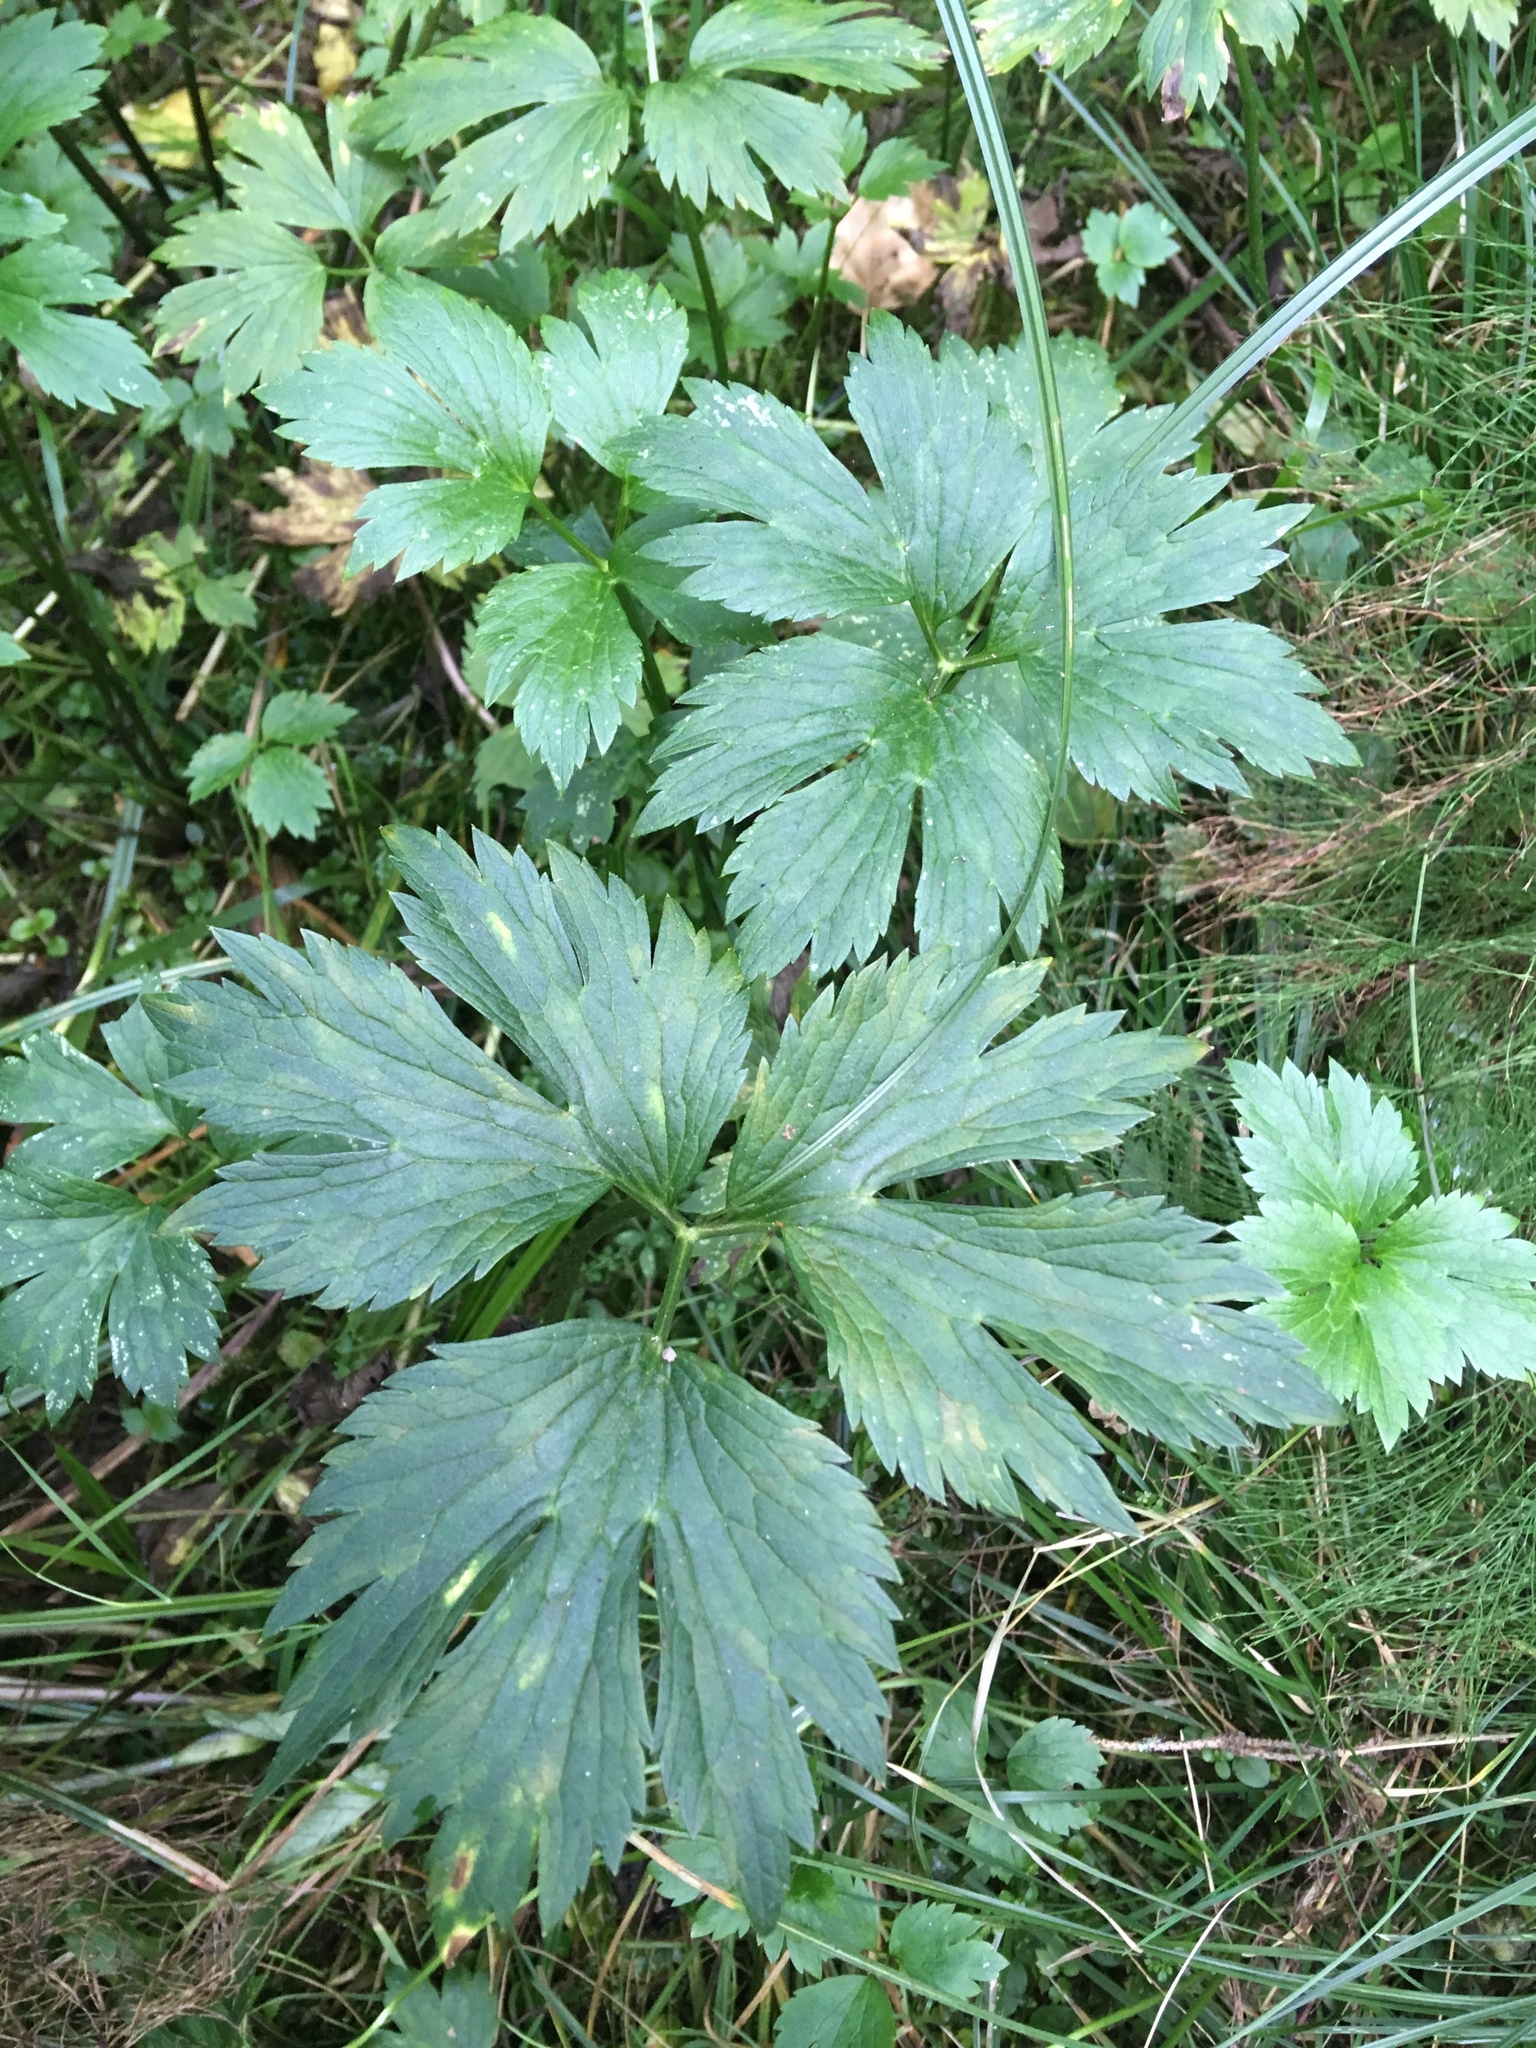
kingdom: Plantae
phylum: Tracheophyta
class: Magnoliopsida
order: Ranunculales
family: Ranunculaceae
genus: Ranunculus
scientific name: Ranunculus repens
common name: Creeping buttercup
